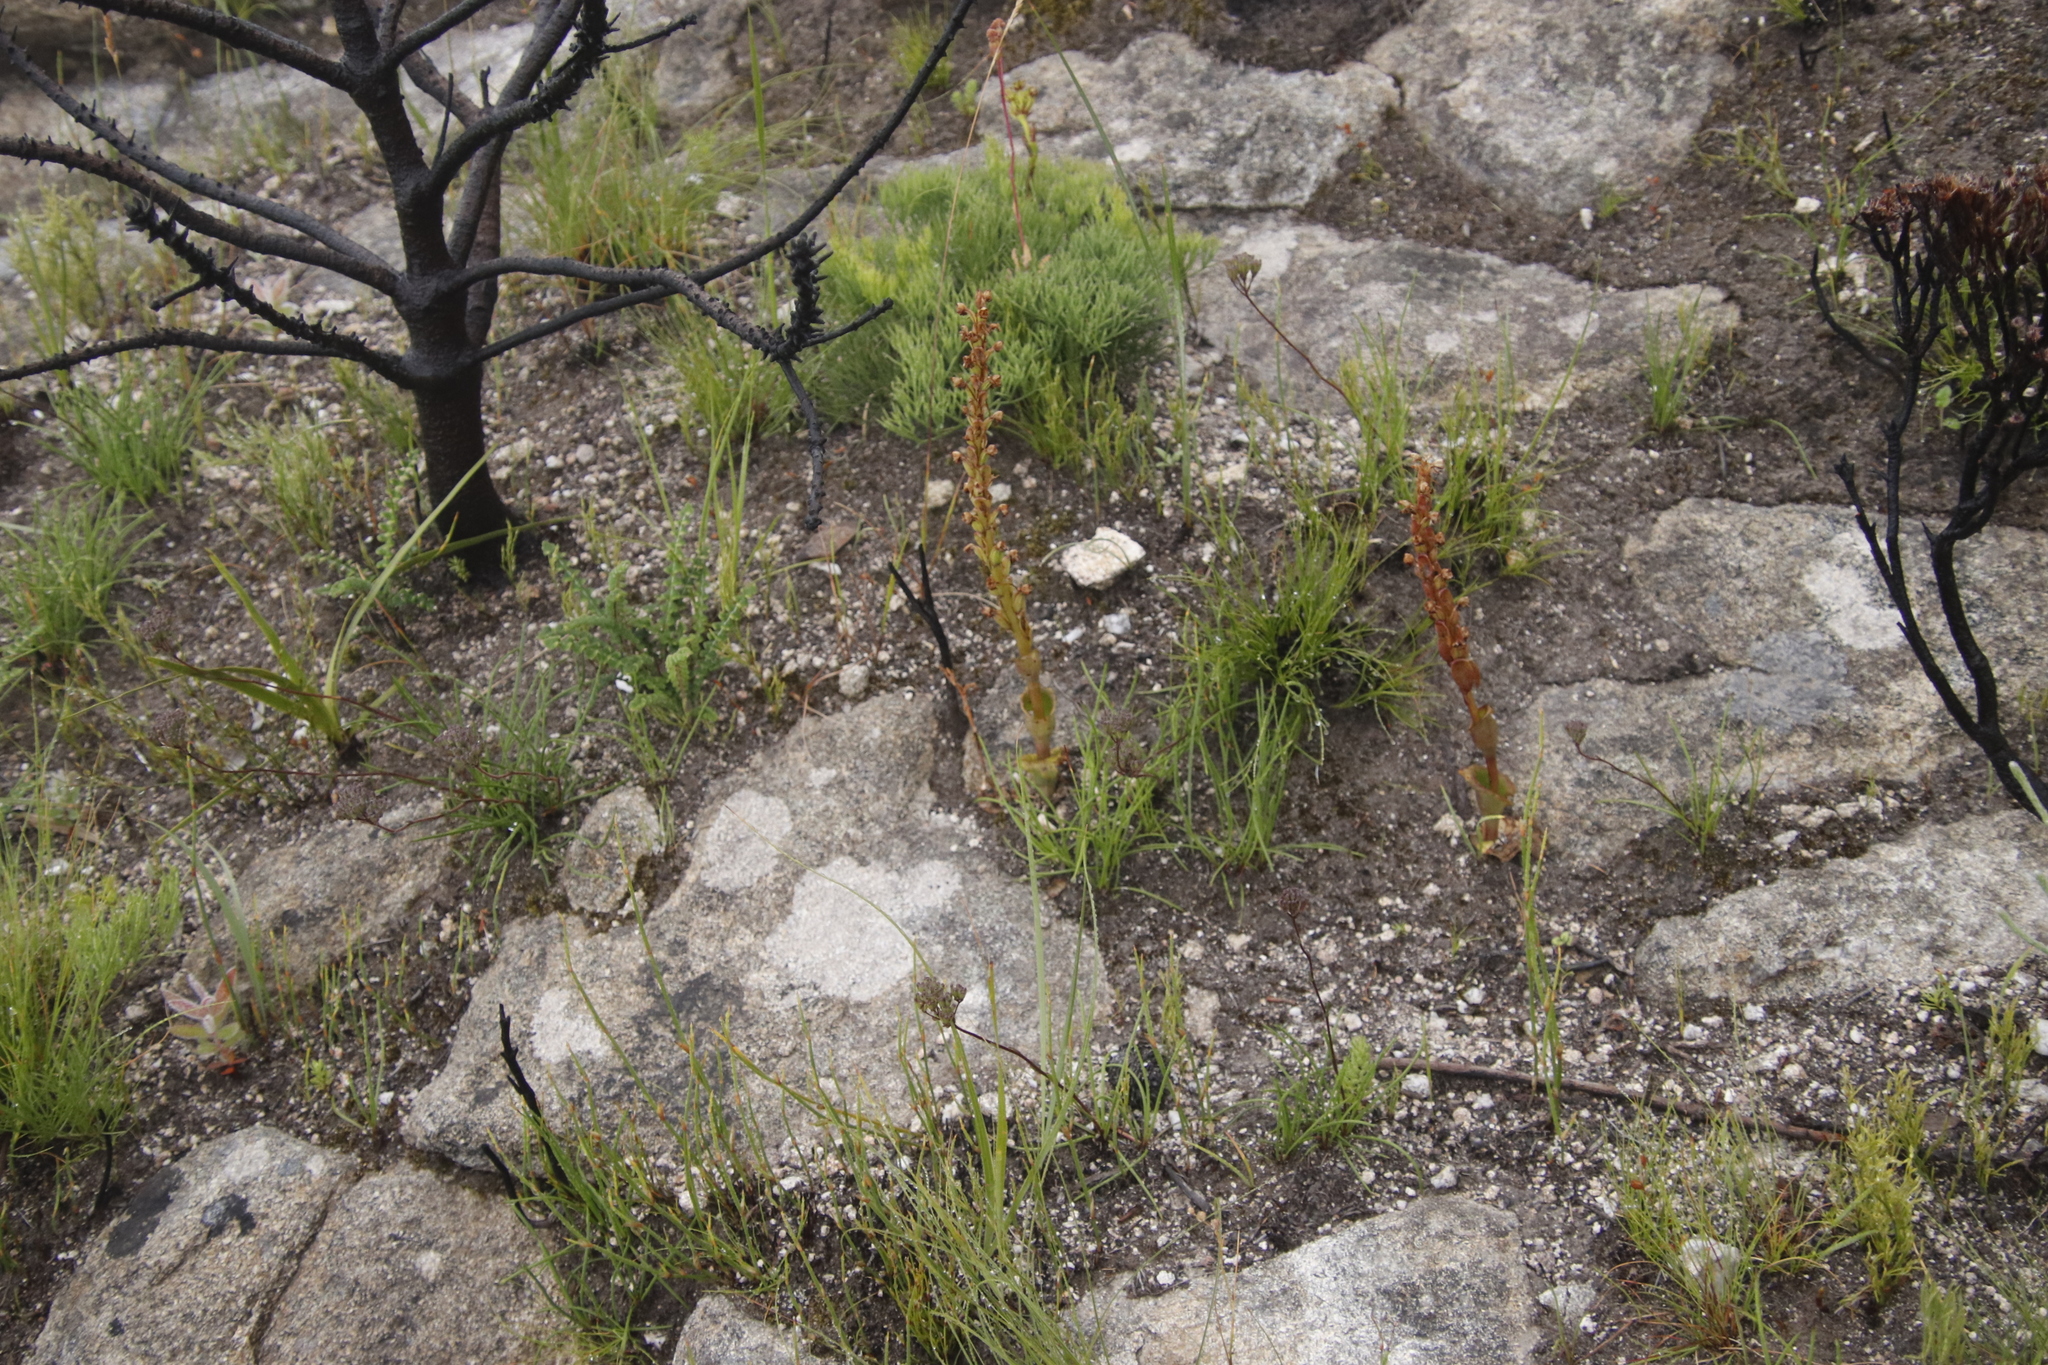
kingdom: Plantae
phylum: Tracheophyta
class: Liliopsida
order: Asparagales
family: Orchidaceae
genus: Satyrium
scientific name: Satyrium humile
